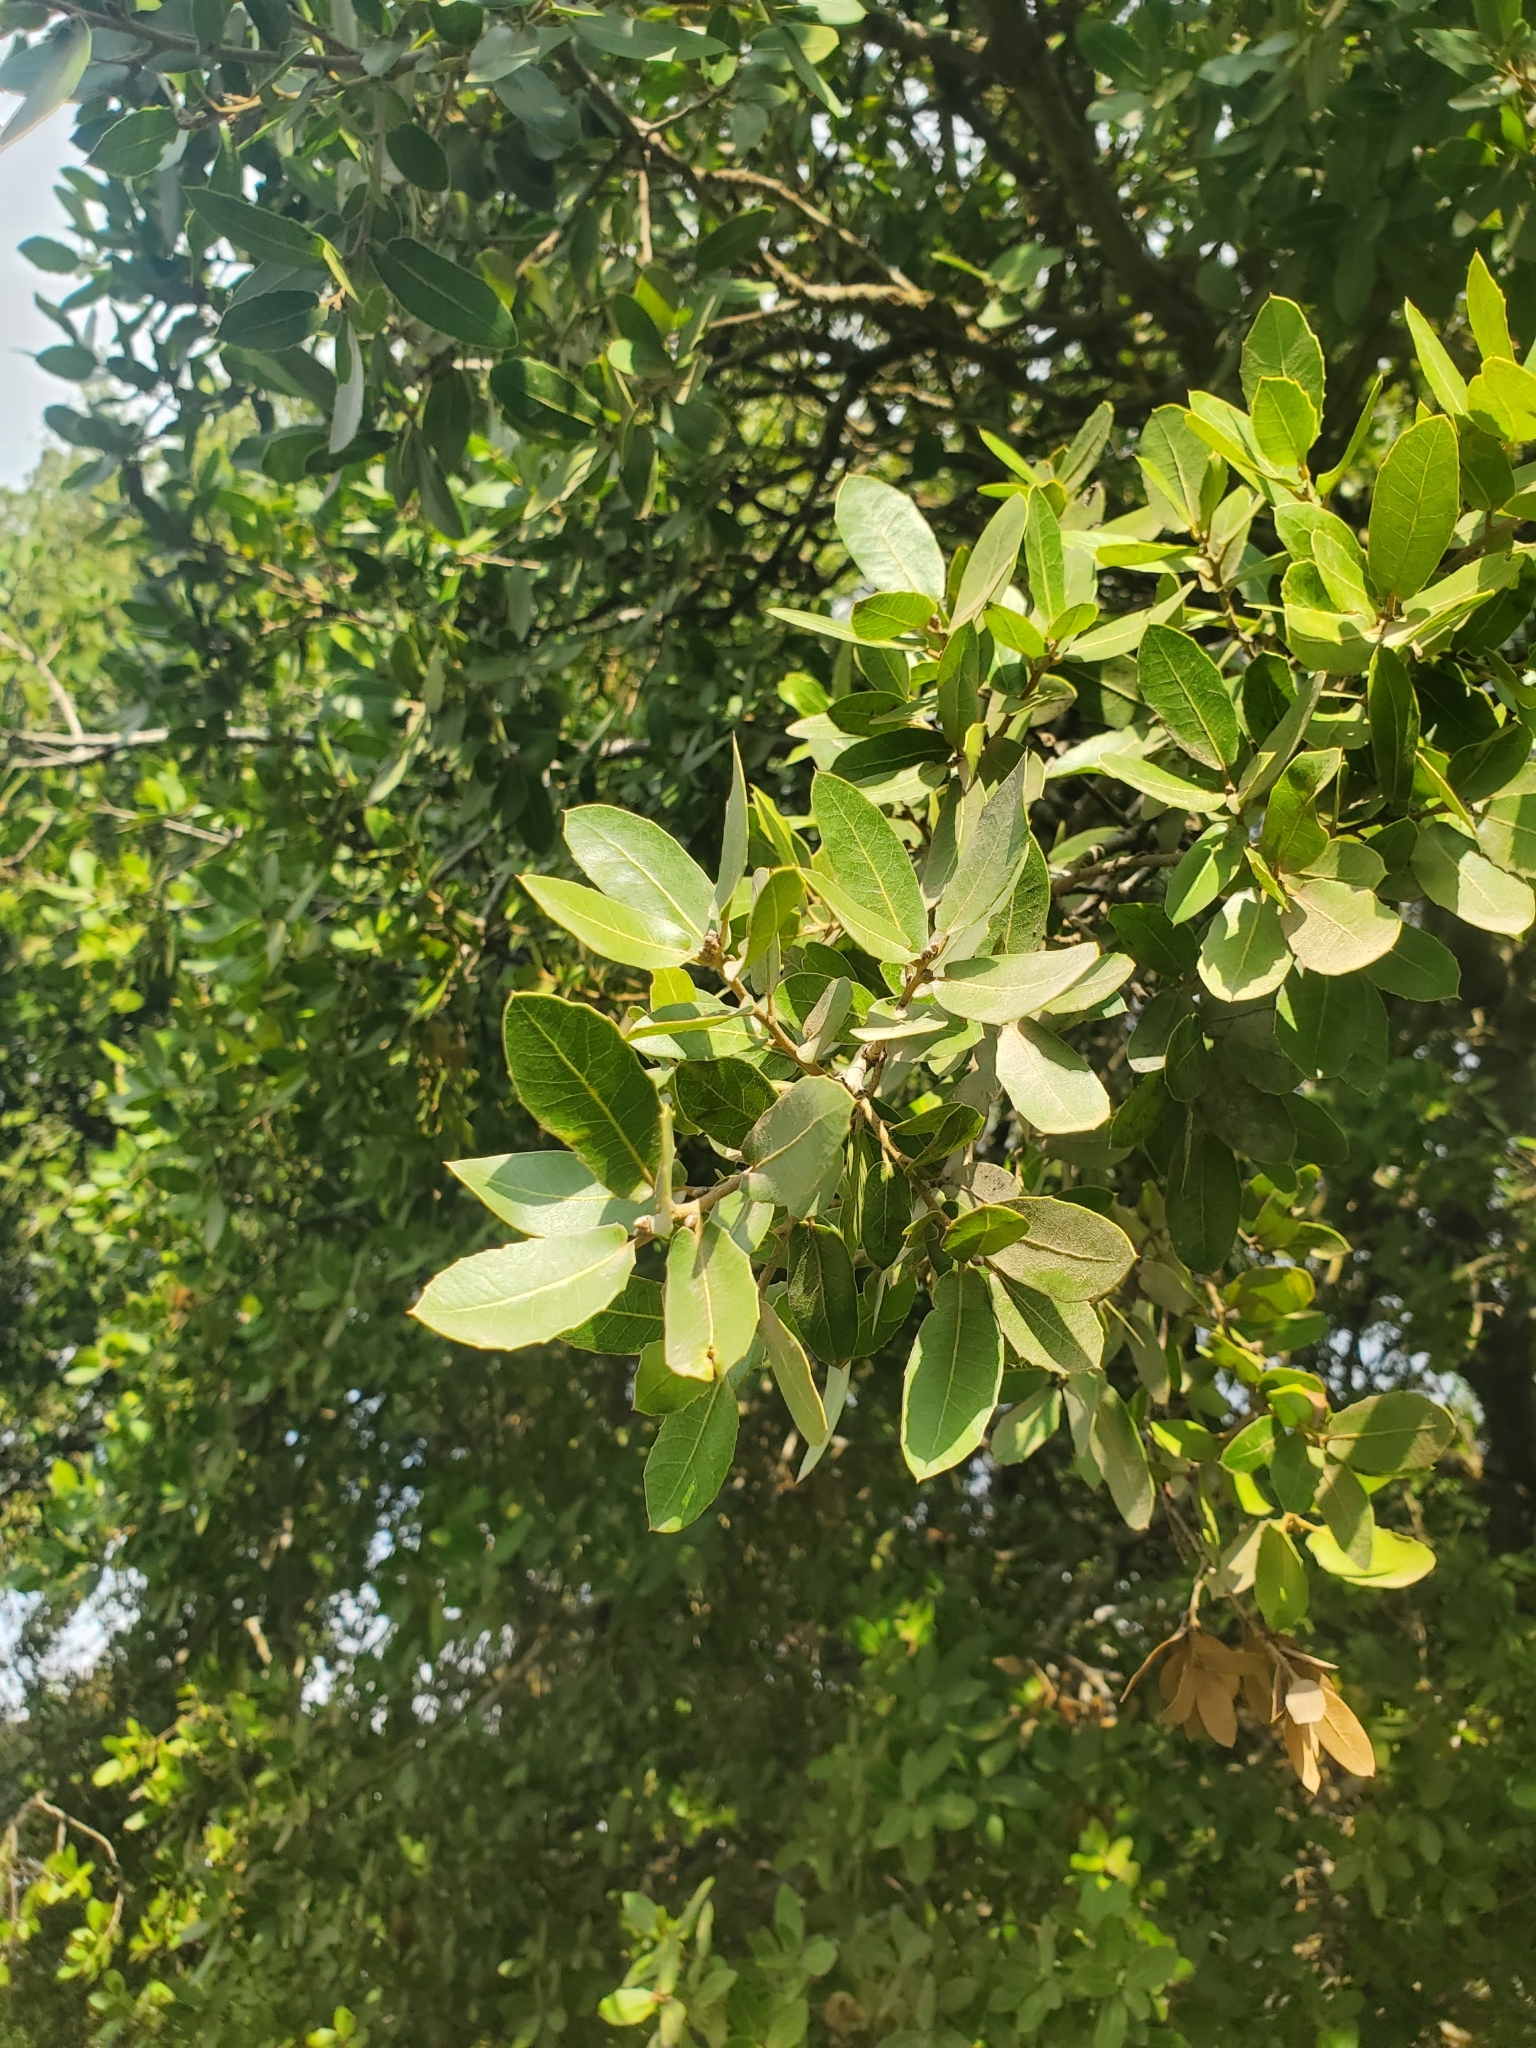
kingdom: Plantae
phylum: Tracheophyta
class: Magnoliopsida
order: Fagales
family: Fagaceae
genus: Quercus
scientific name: Quercus coccifera
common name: Kermes oak
